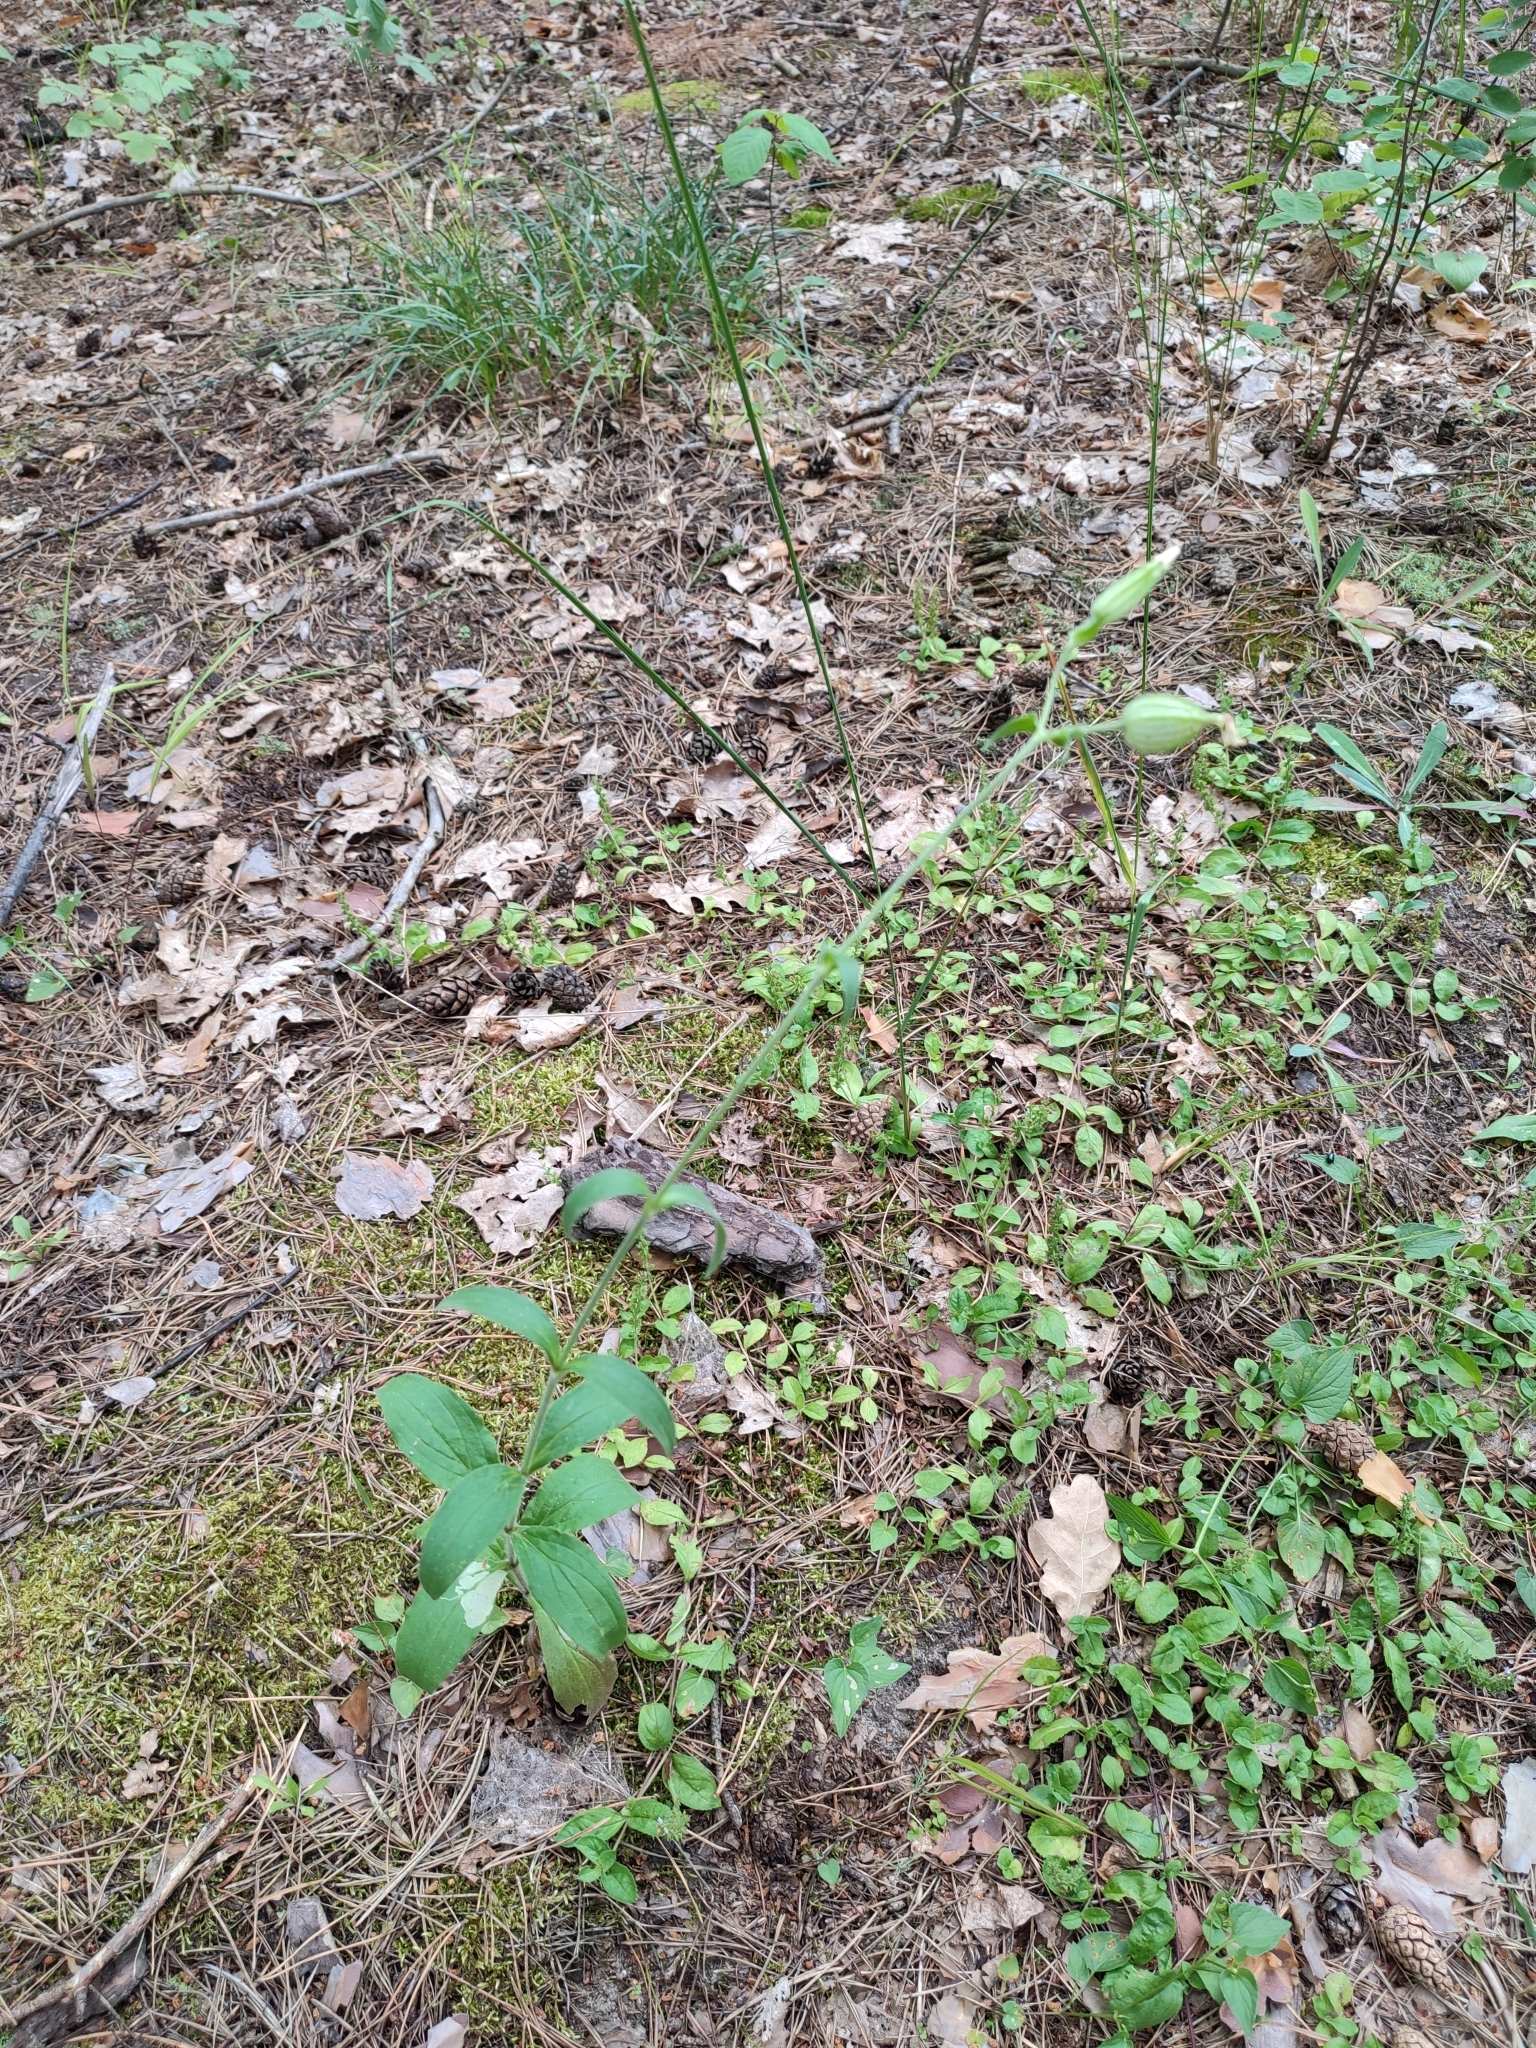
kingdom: Plantae
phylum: Tracheophyta
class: Magnoliopsida
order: Caryophyllales
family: Caryophyllaceae
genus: Silene
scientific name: Silene latifolia
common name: White campion
